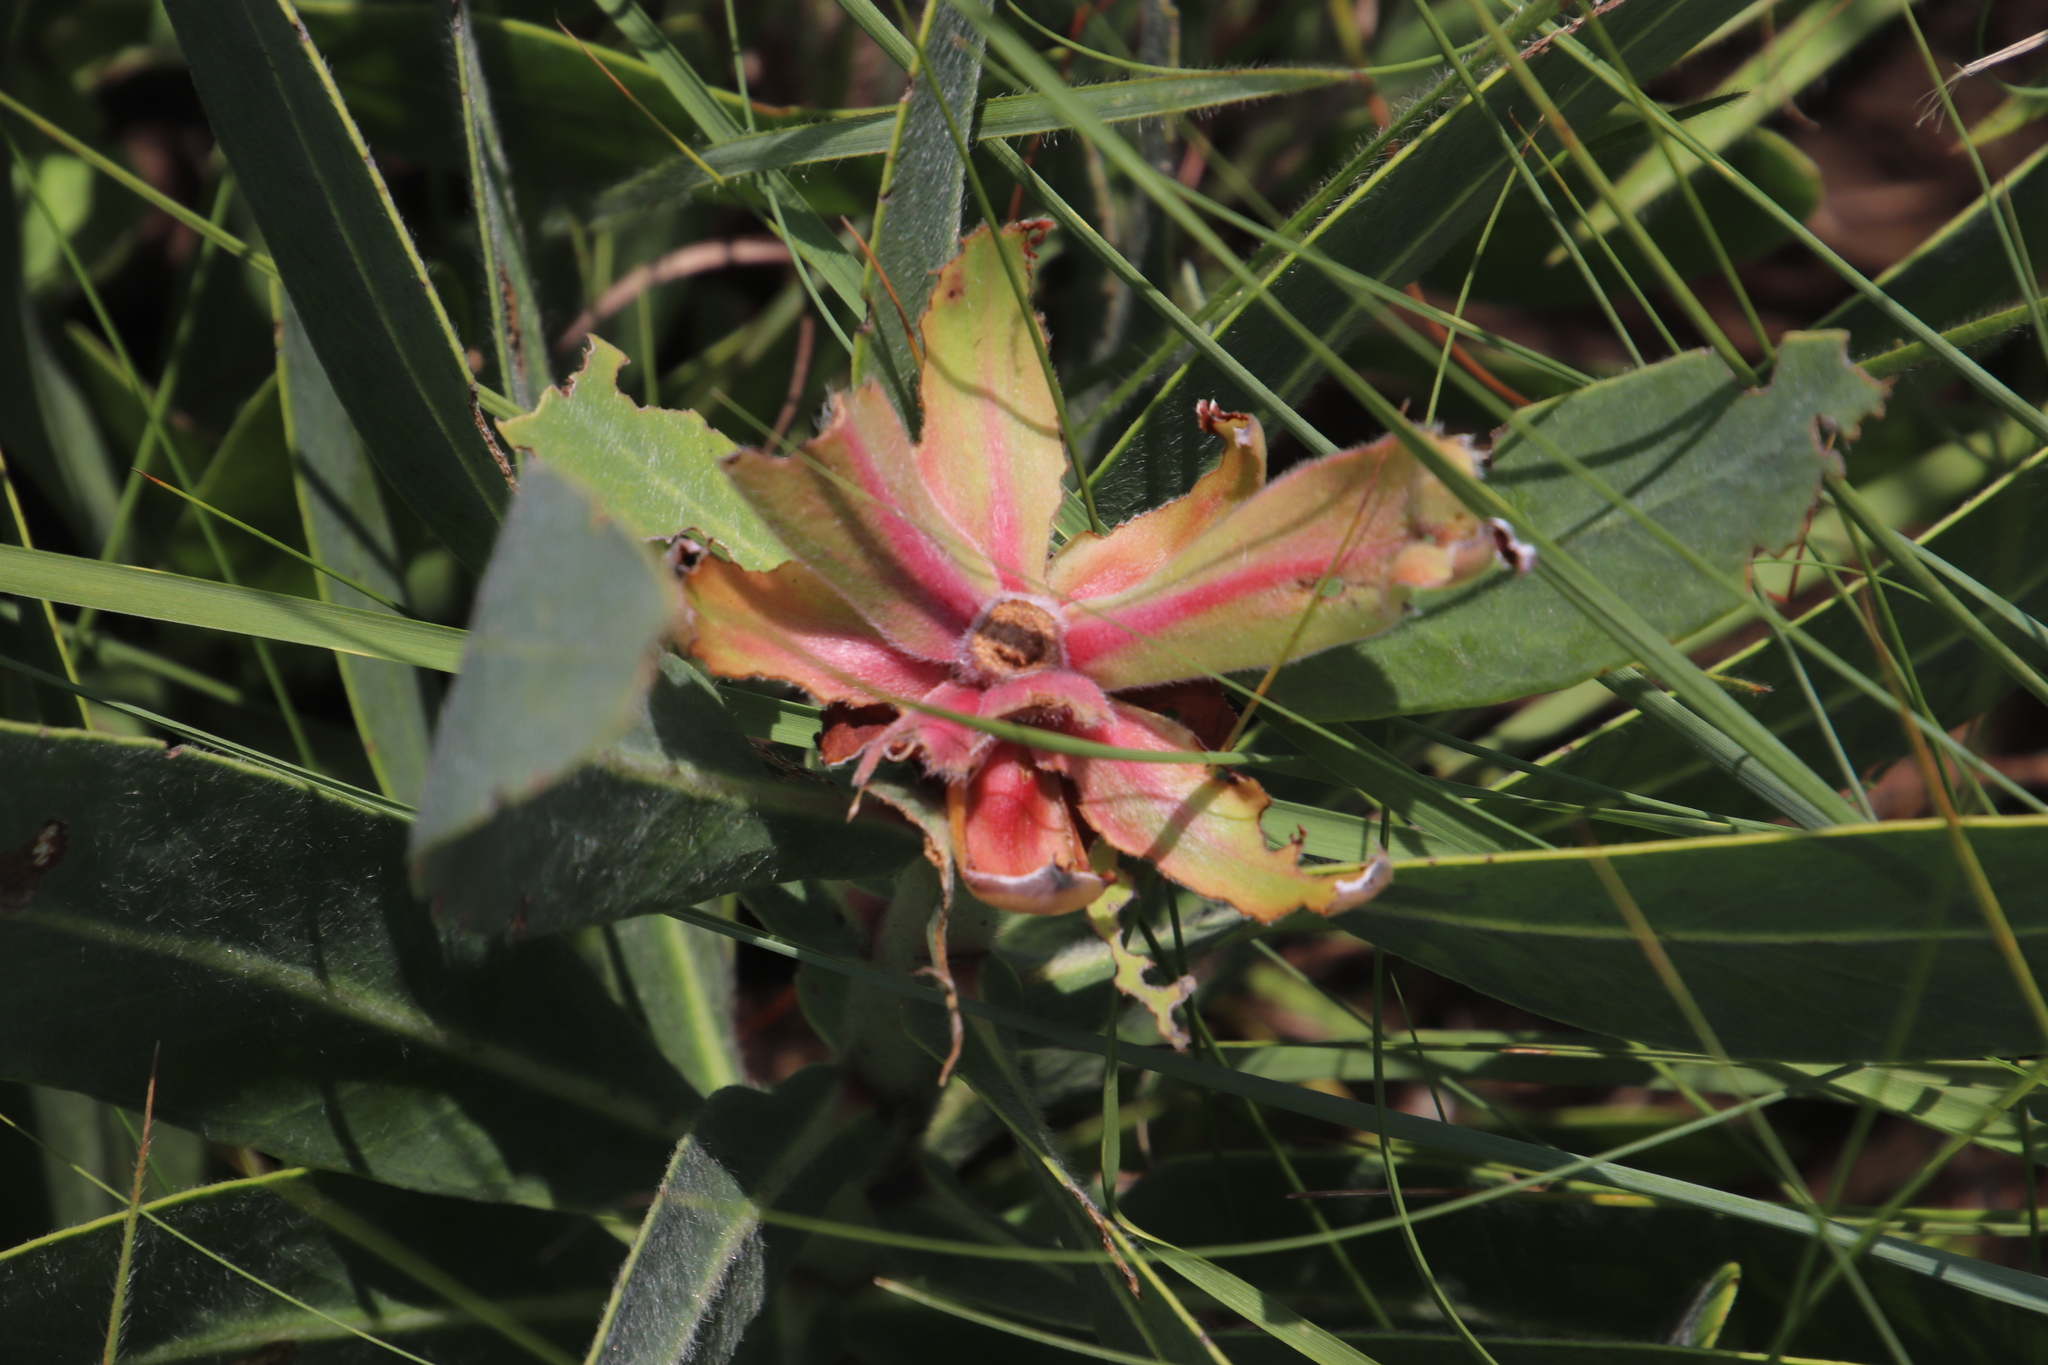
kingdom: Plantae
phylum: Tracheophyta
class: Magnoliopsida
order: Proteales
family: Proteaceae
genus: Protea
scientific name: Protea gaguedi
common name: African protea
